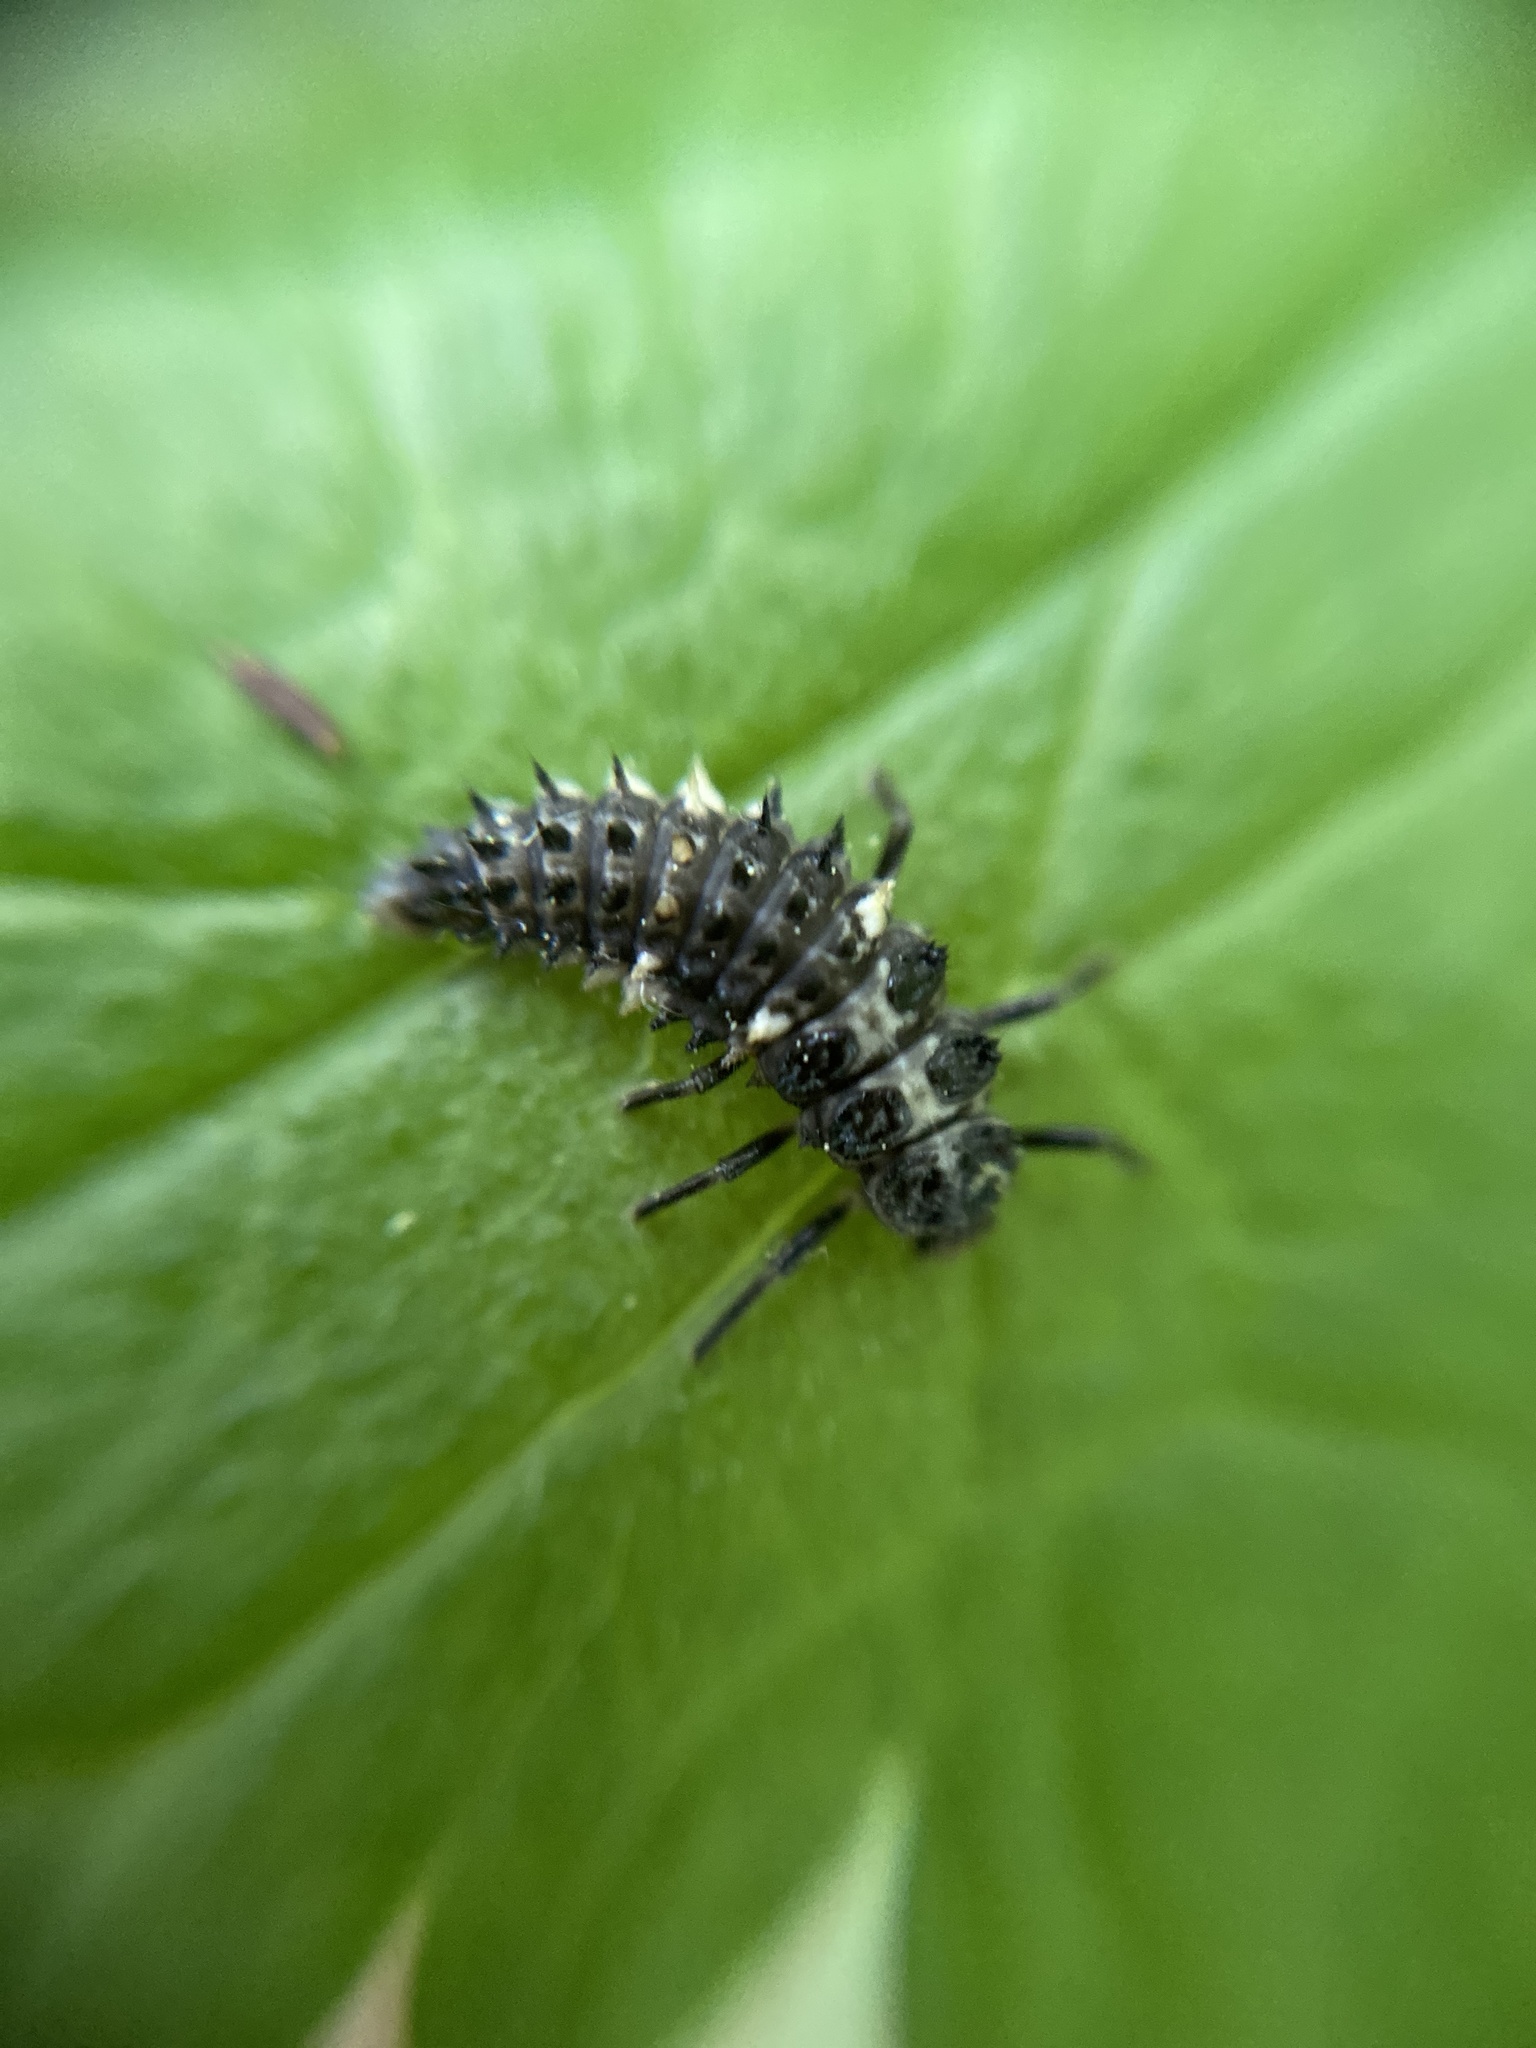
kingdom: Animalia
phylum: Arthropoda
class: Insecta
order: Coleoptera
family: Coccinellidae
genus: Calvia
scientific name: Calvia quatuordecimguttata
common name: Cream-spot ladybird
